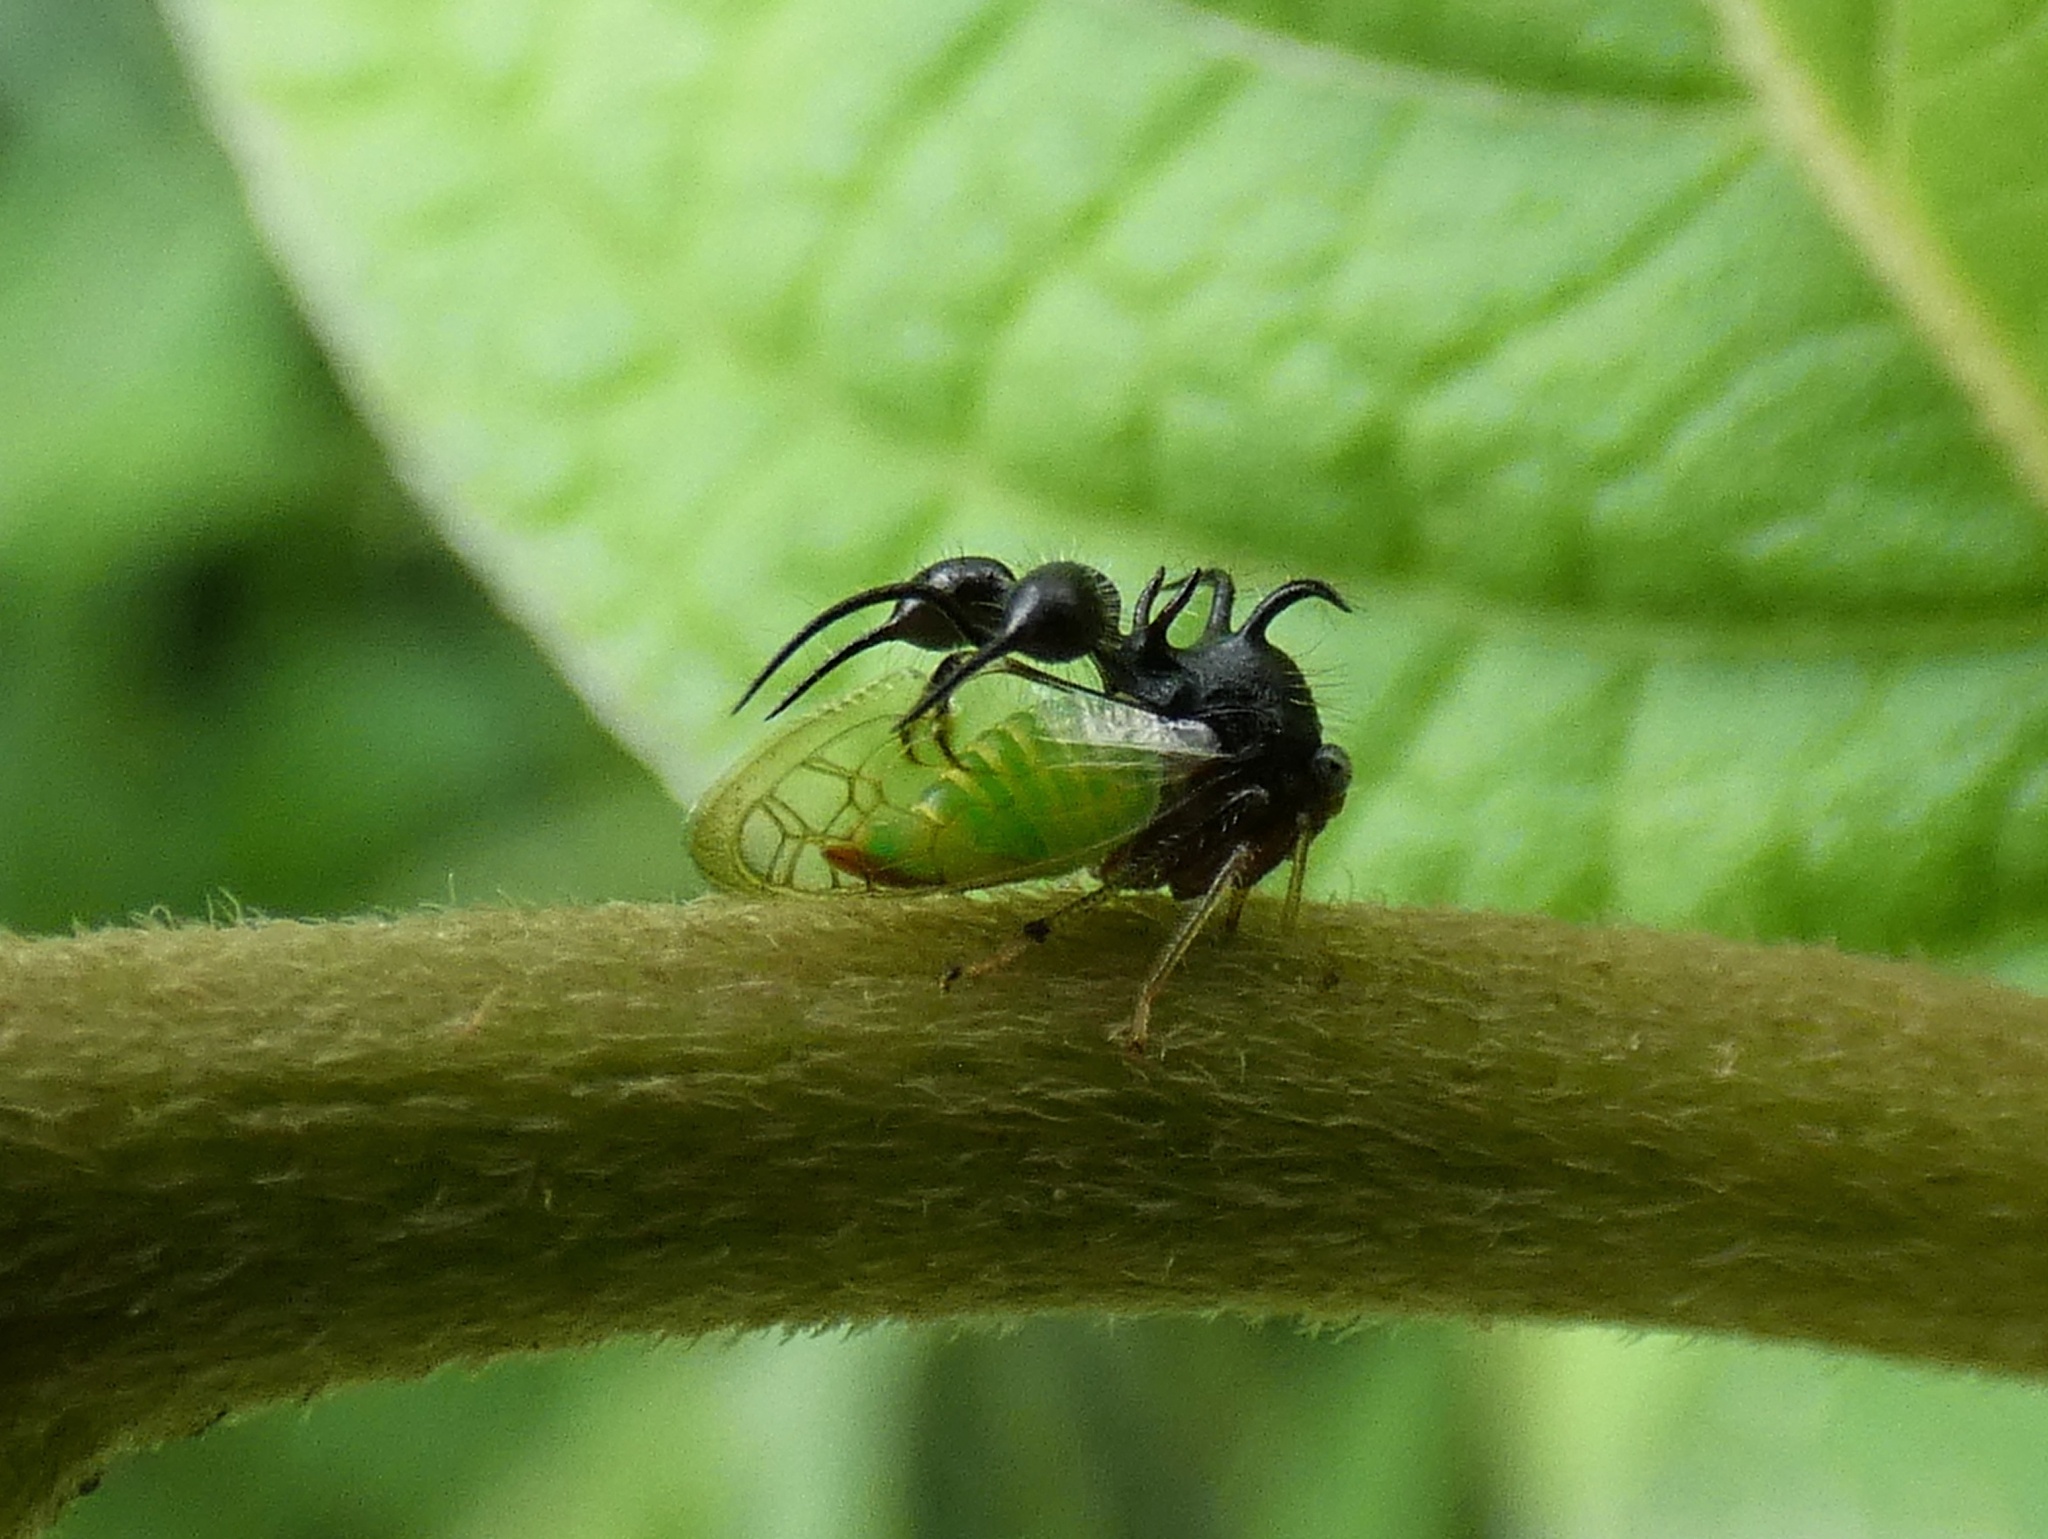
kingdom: Animalia
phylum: Arthropoda
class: Insecta
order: Hemiptera
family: Membracidae
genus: Cyphonia
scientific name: Cyphonia clavata
